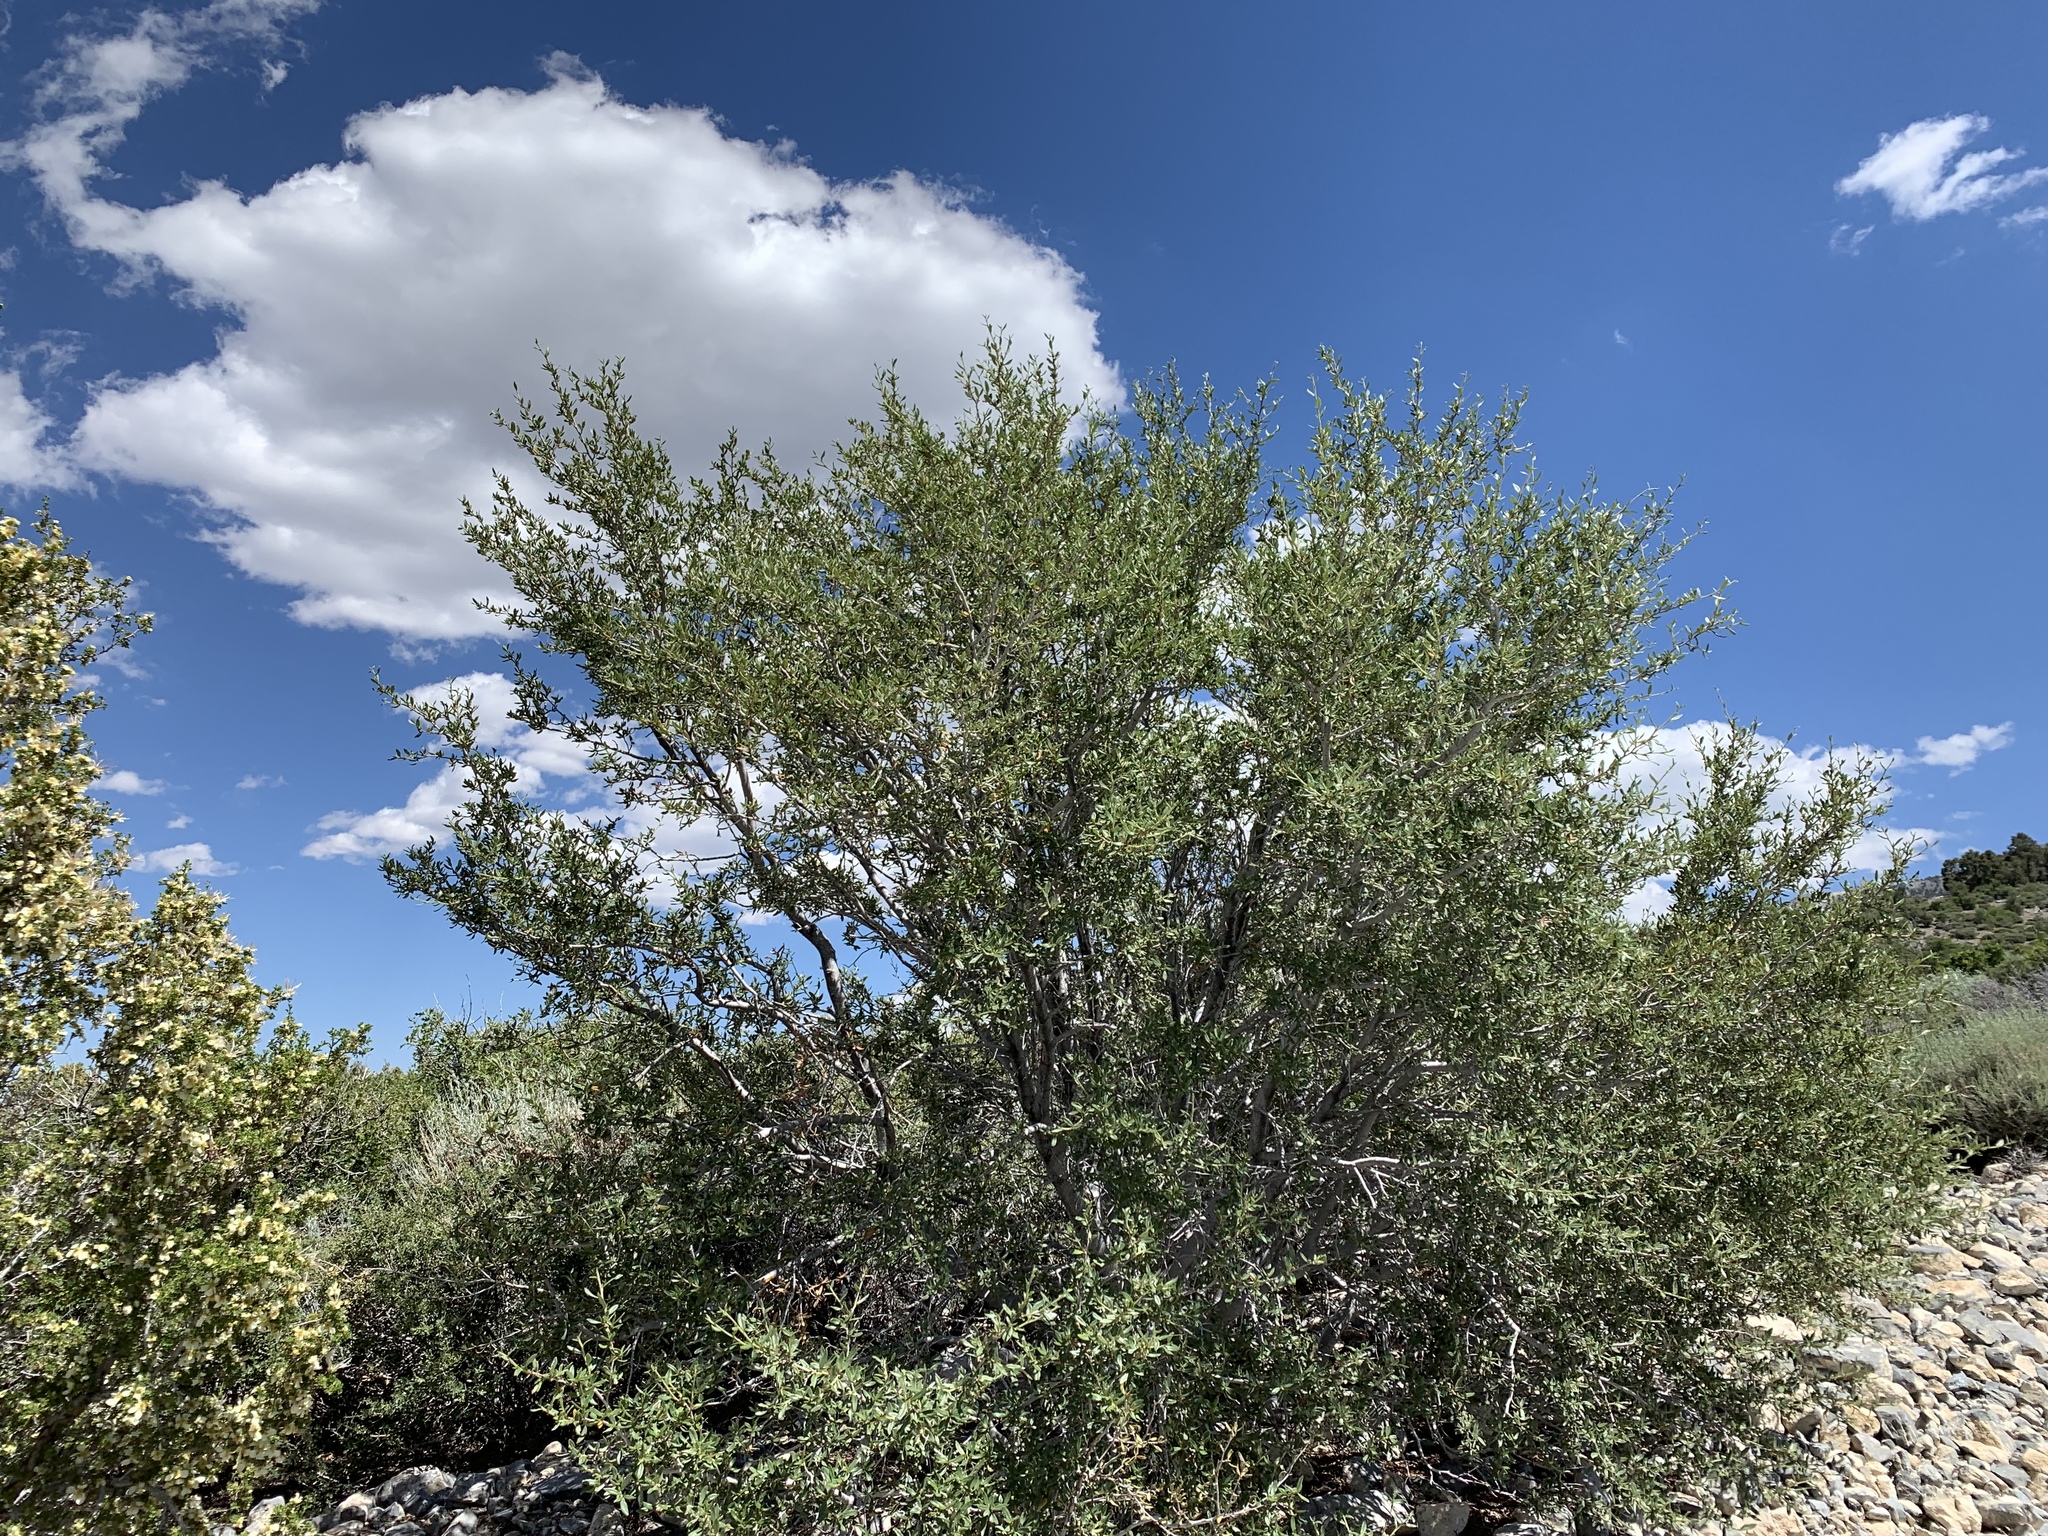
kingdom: Plantae
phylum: Tracheophyta
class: Magnoliopsida
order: Rosales
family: Rosaceae
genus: Cercocarpus
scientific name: Cercocarpus ledifolius
